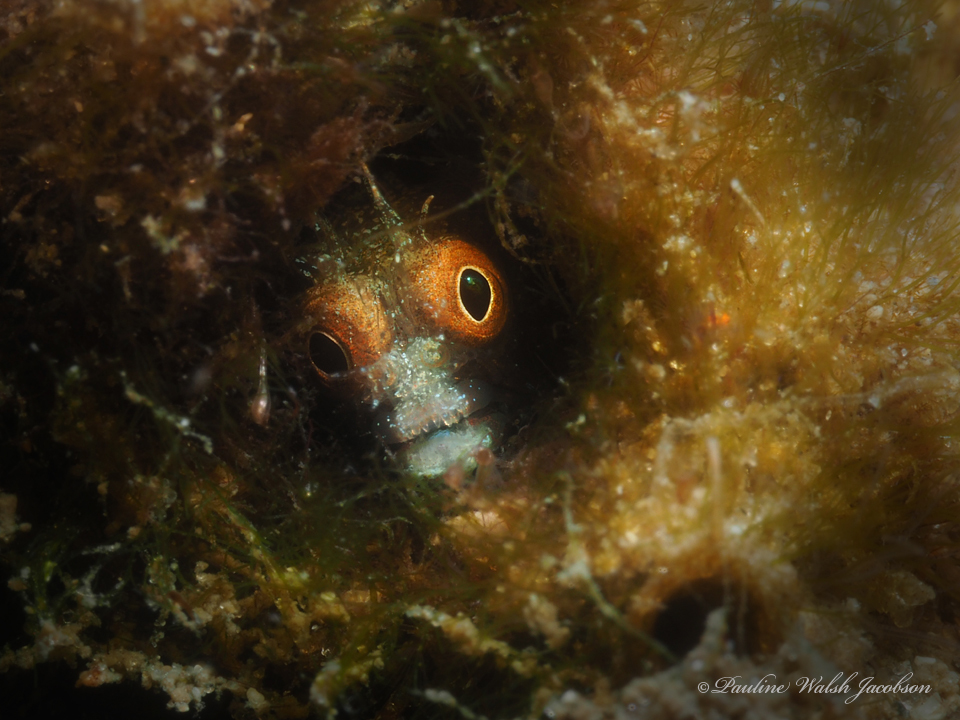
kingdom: Animalia
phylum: Chordata
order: Perciformes
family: Chaenopsidae
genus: Acanthemblemaria
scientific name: Acanthemblemaria aspera
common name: Roughhead blenny
